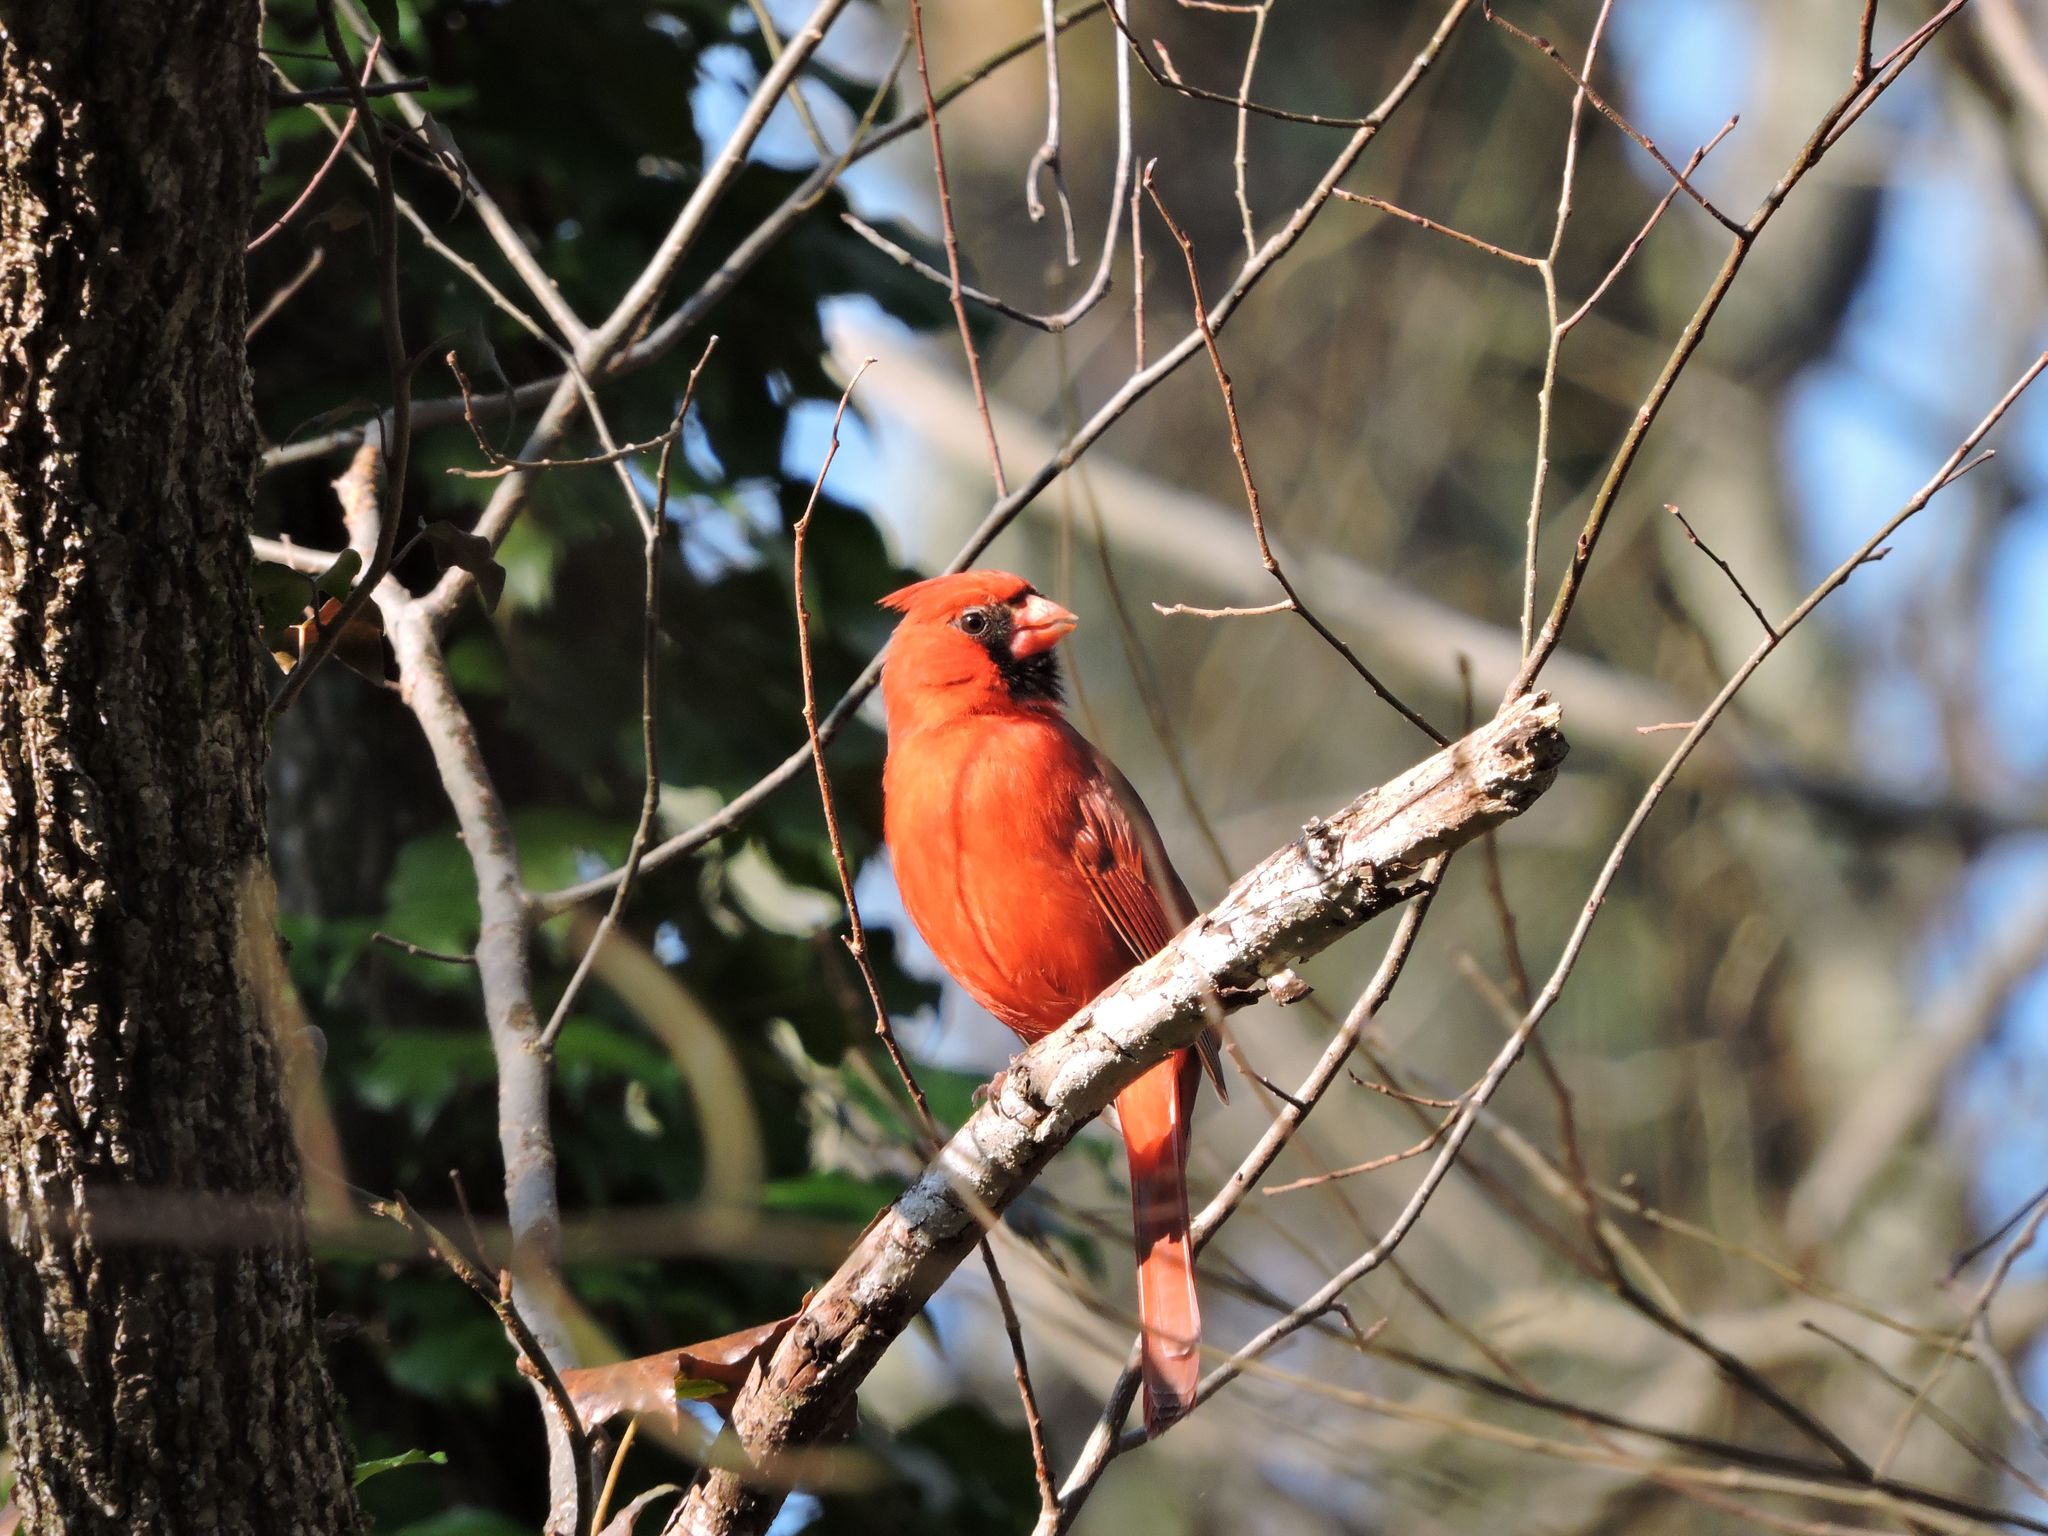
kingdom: Animalia
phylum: Chordata
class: Aves
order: Passeriformes
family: Cardinalidae
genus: Cardinalis
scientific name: Cardinalis cardinalis
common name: Northern cardinal
